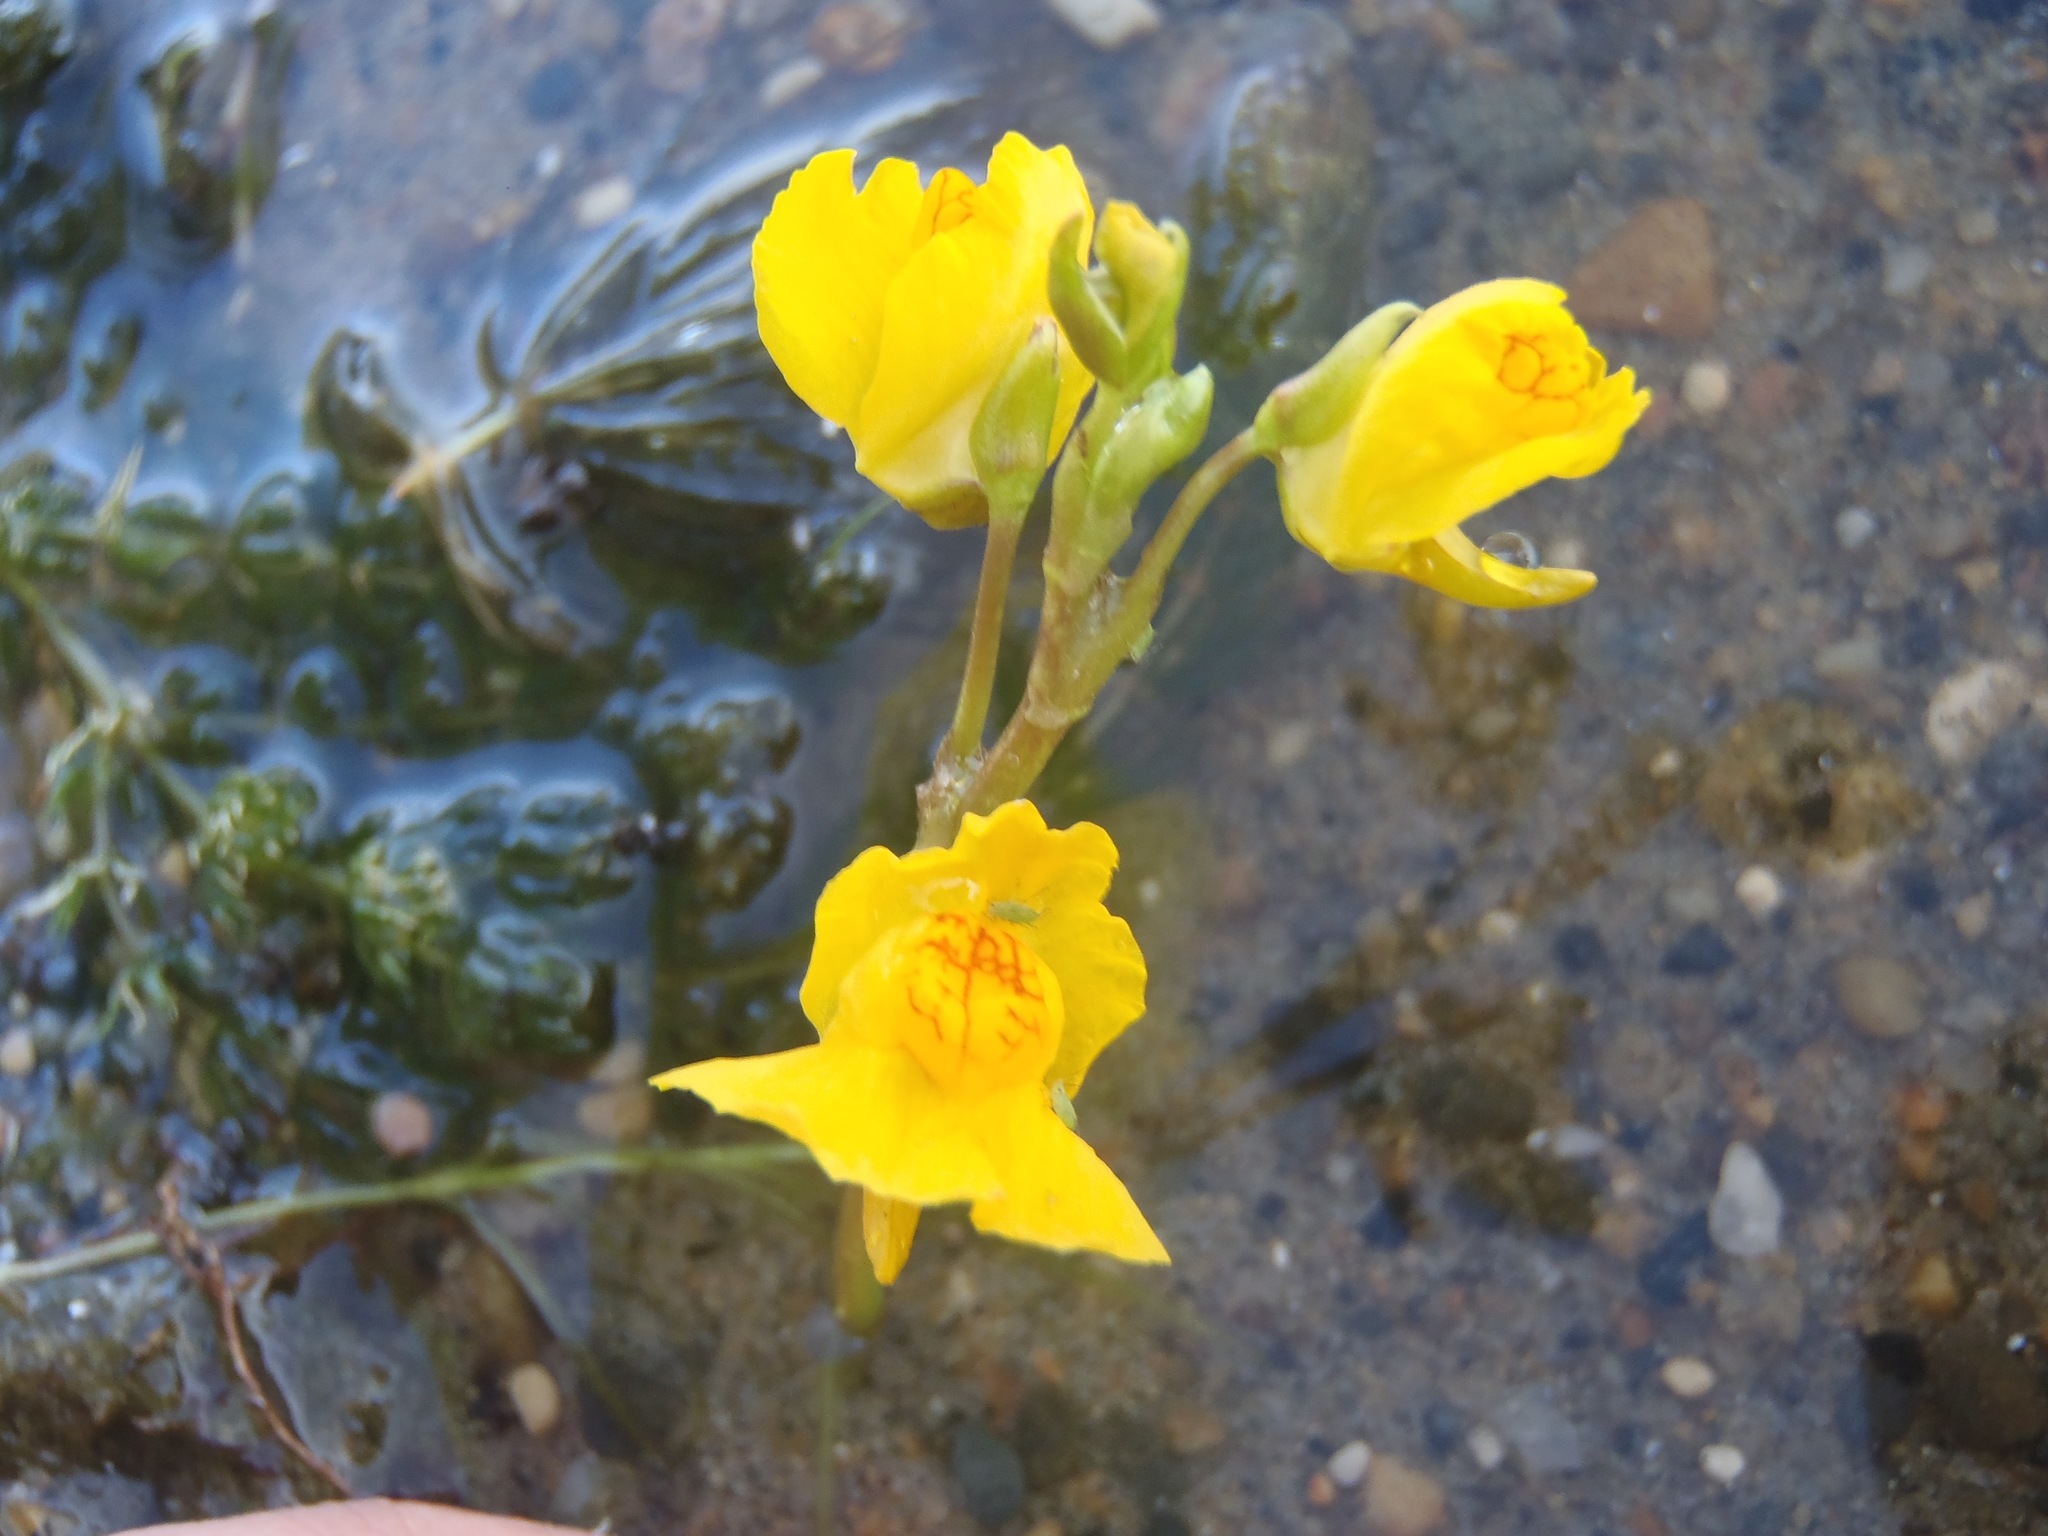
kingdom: Plantae
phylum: Tracheophyta
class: Magnoliopsida
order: Lamiales
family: Lentibulariaceae
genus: Utricularia
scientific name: Utricularia macrorhiza
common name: Common bladderwort
